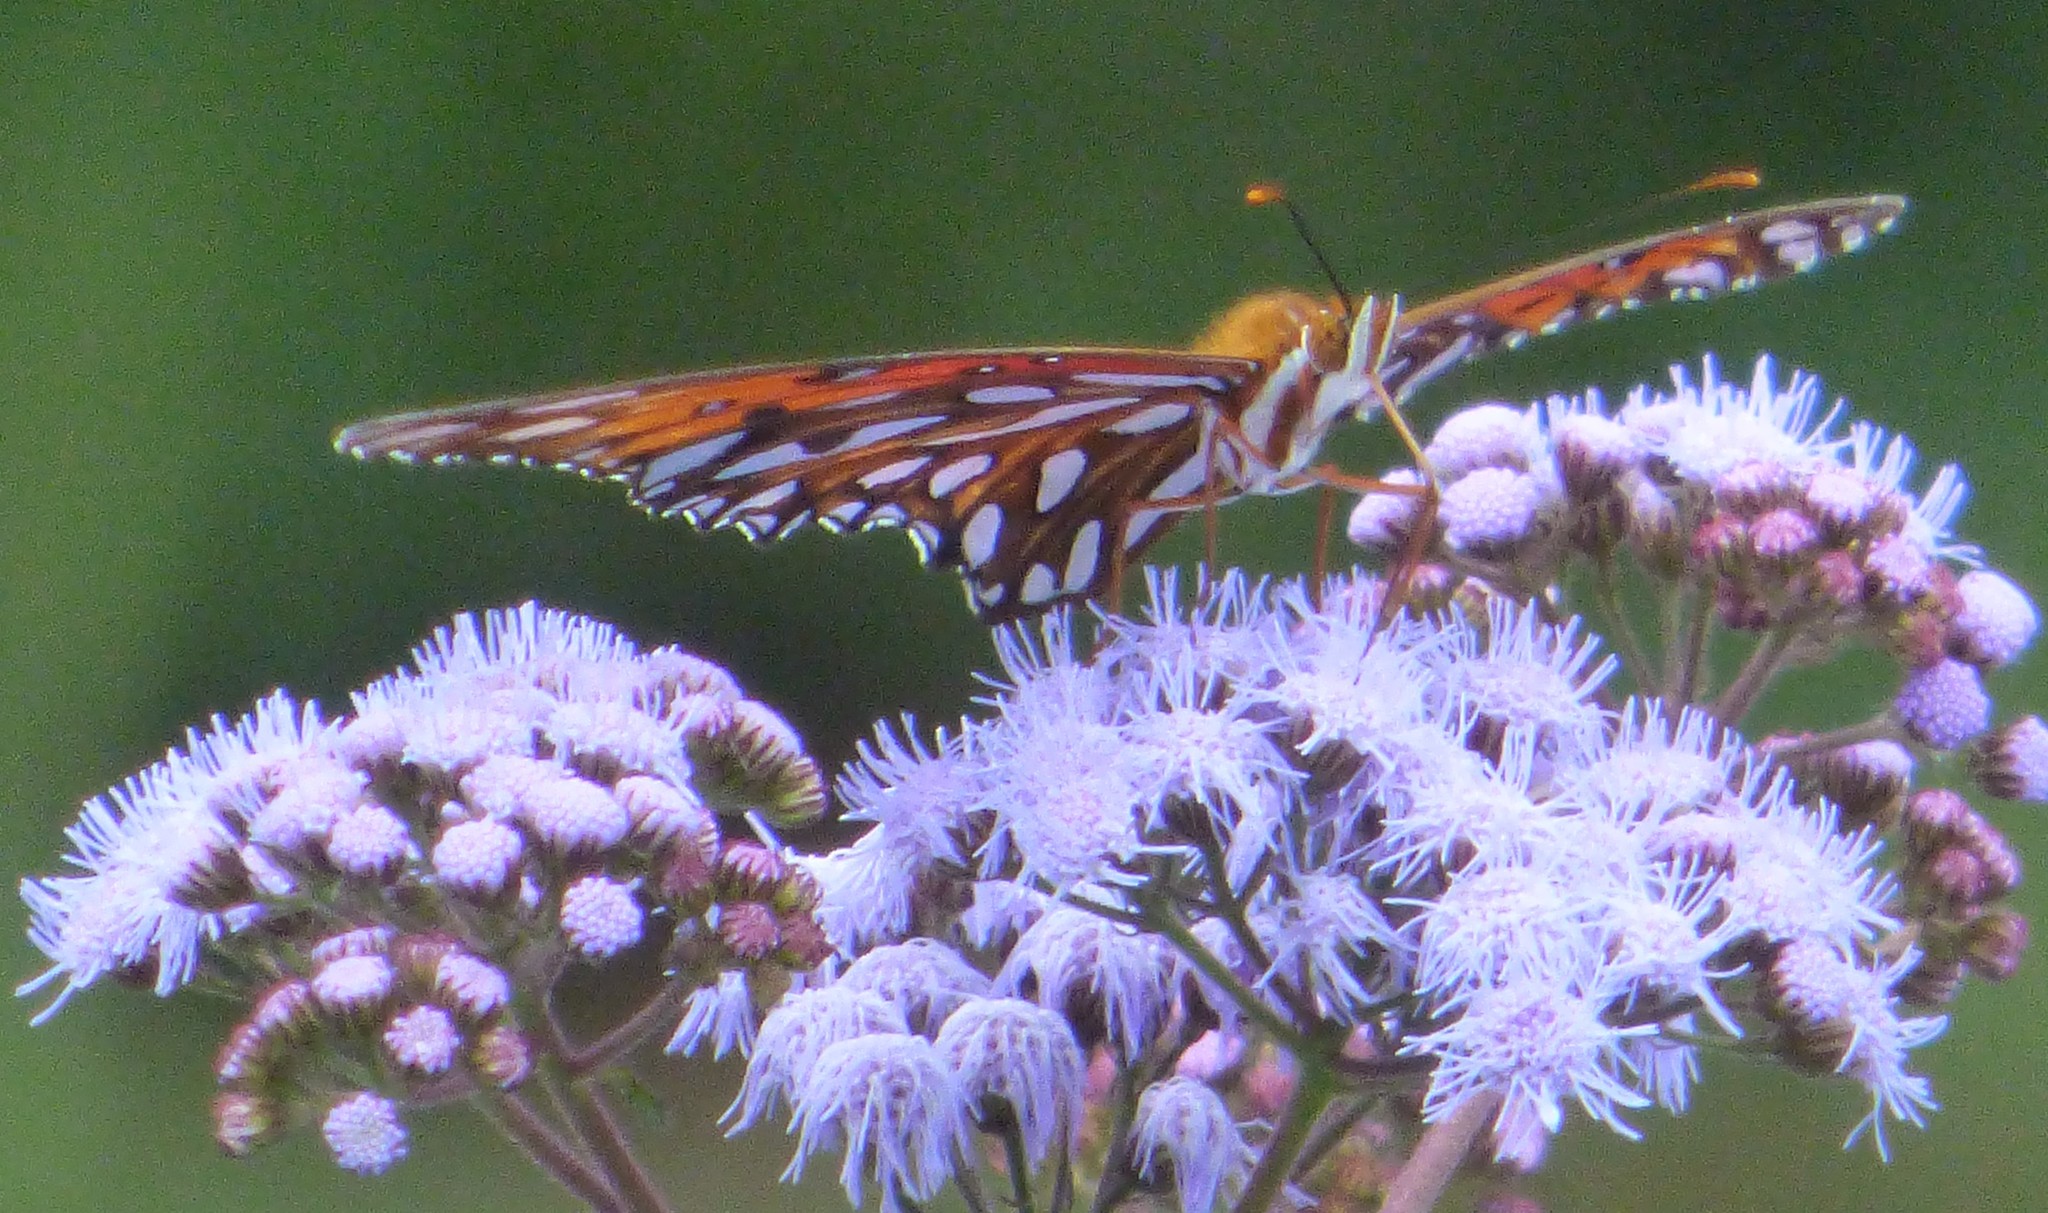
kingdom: Animalia
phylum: Arthropoda
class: Insecta
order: Lepidoptera
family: Nymphalidae
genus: Dione
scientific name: Dione vanillae
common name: Gulf fritillary
